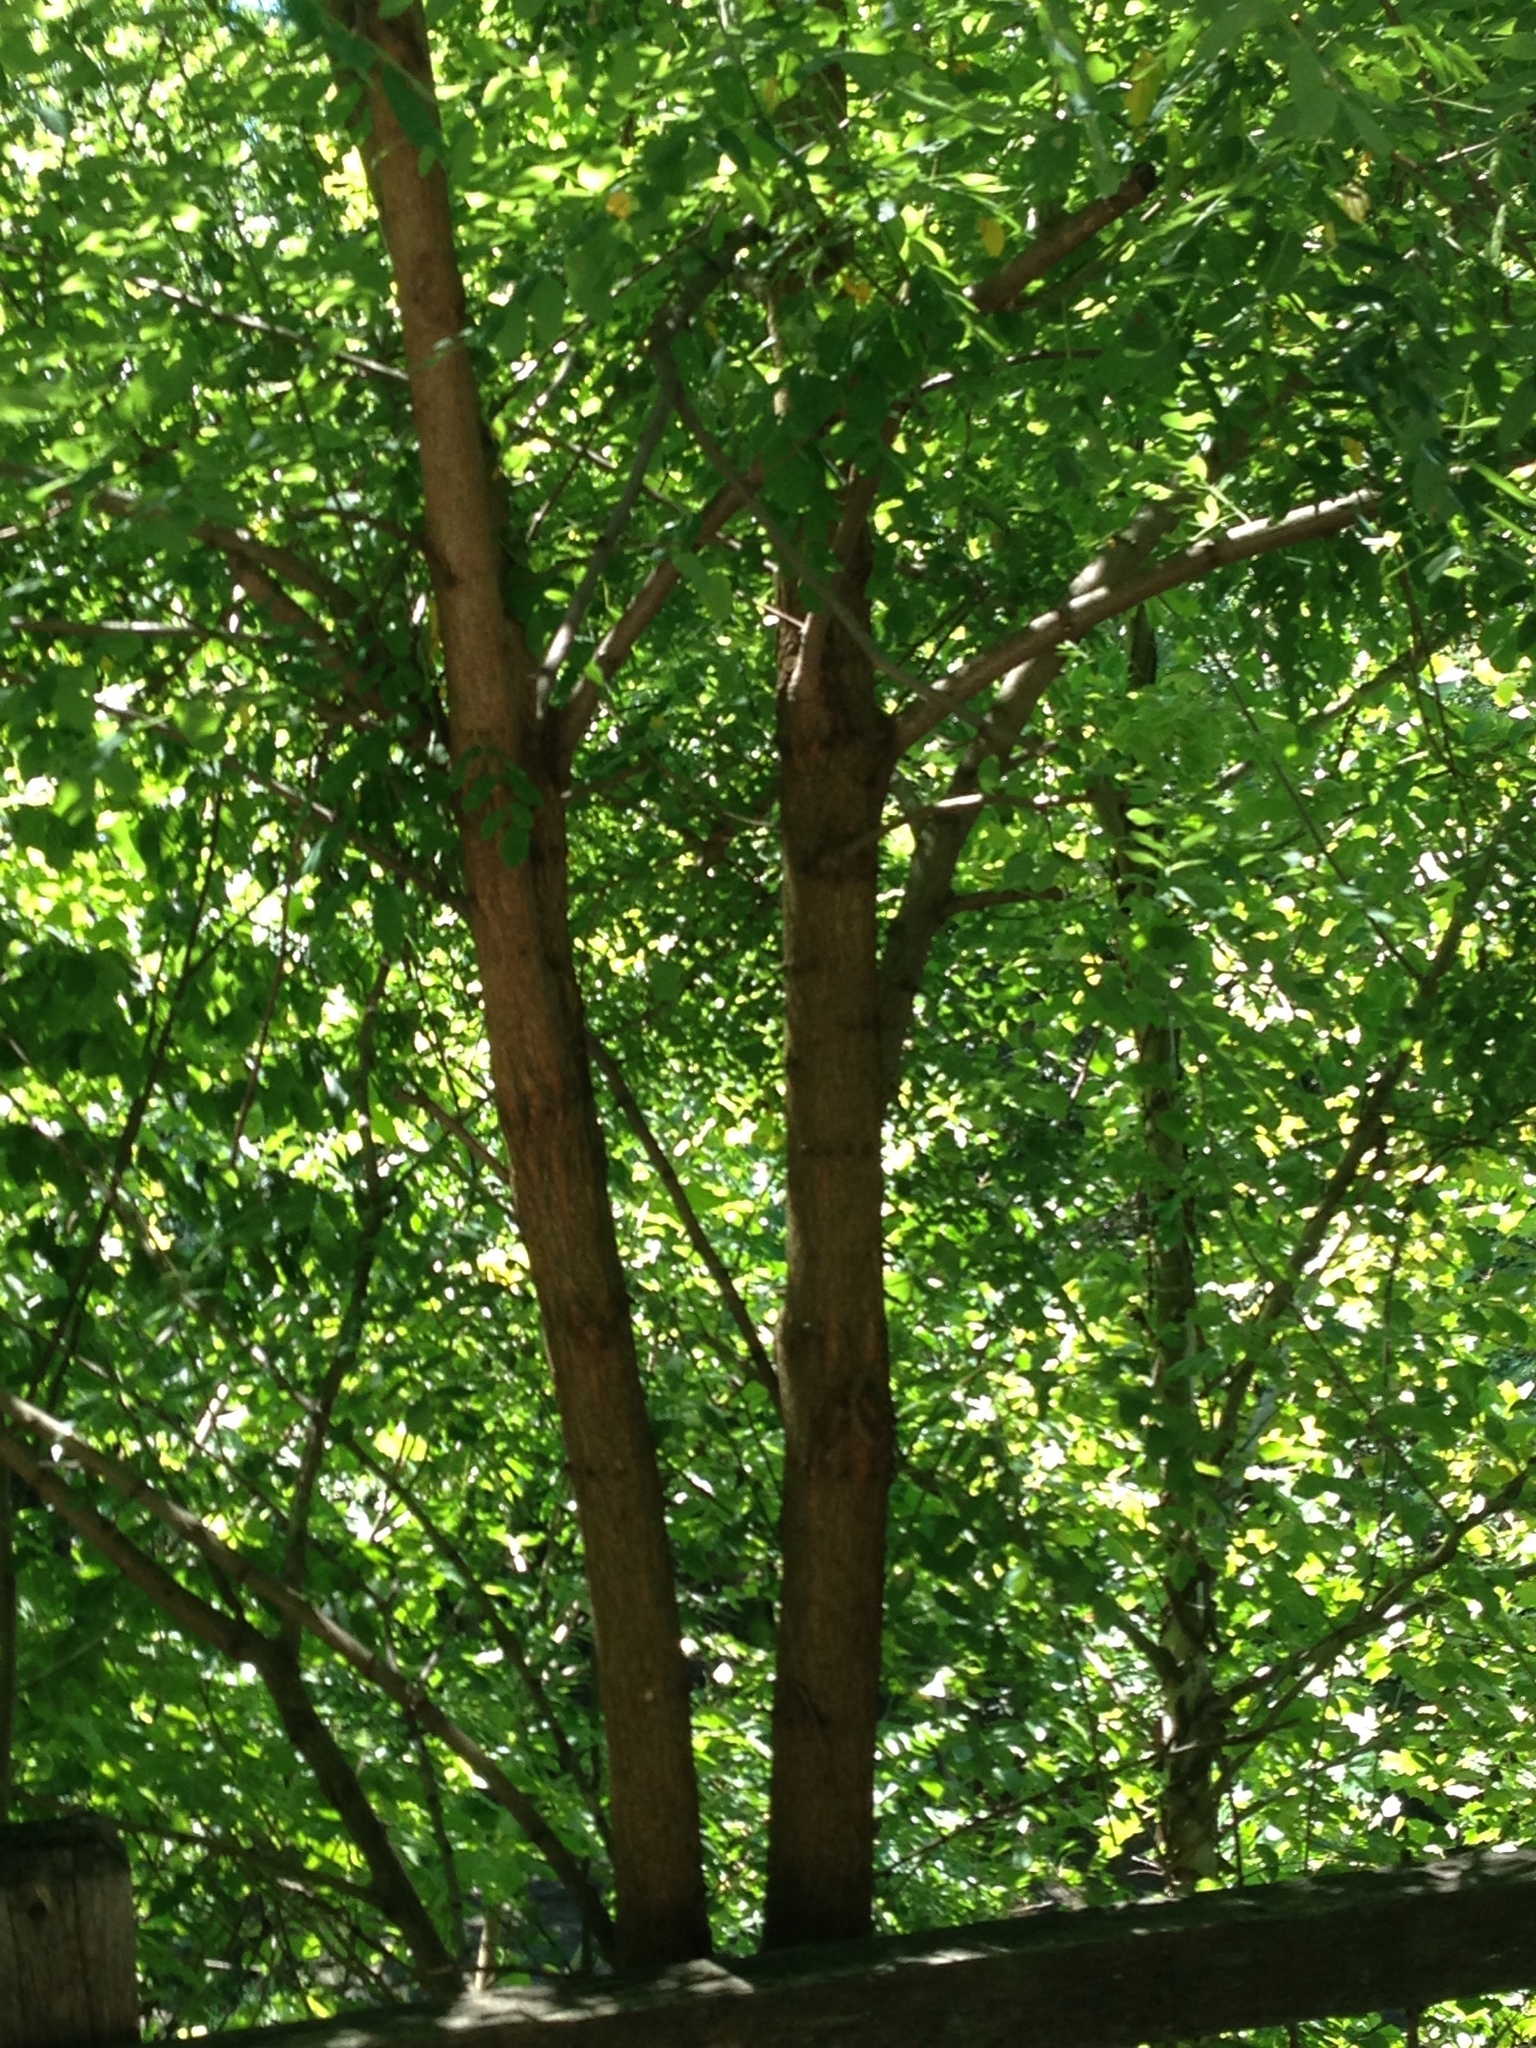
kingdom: Plantae
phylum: Tracheophyta
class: Magnoliopsida
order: Fabales
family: Fabaceae
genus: Robinia
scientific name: Robinia pseudoacacia
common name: Black locust
